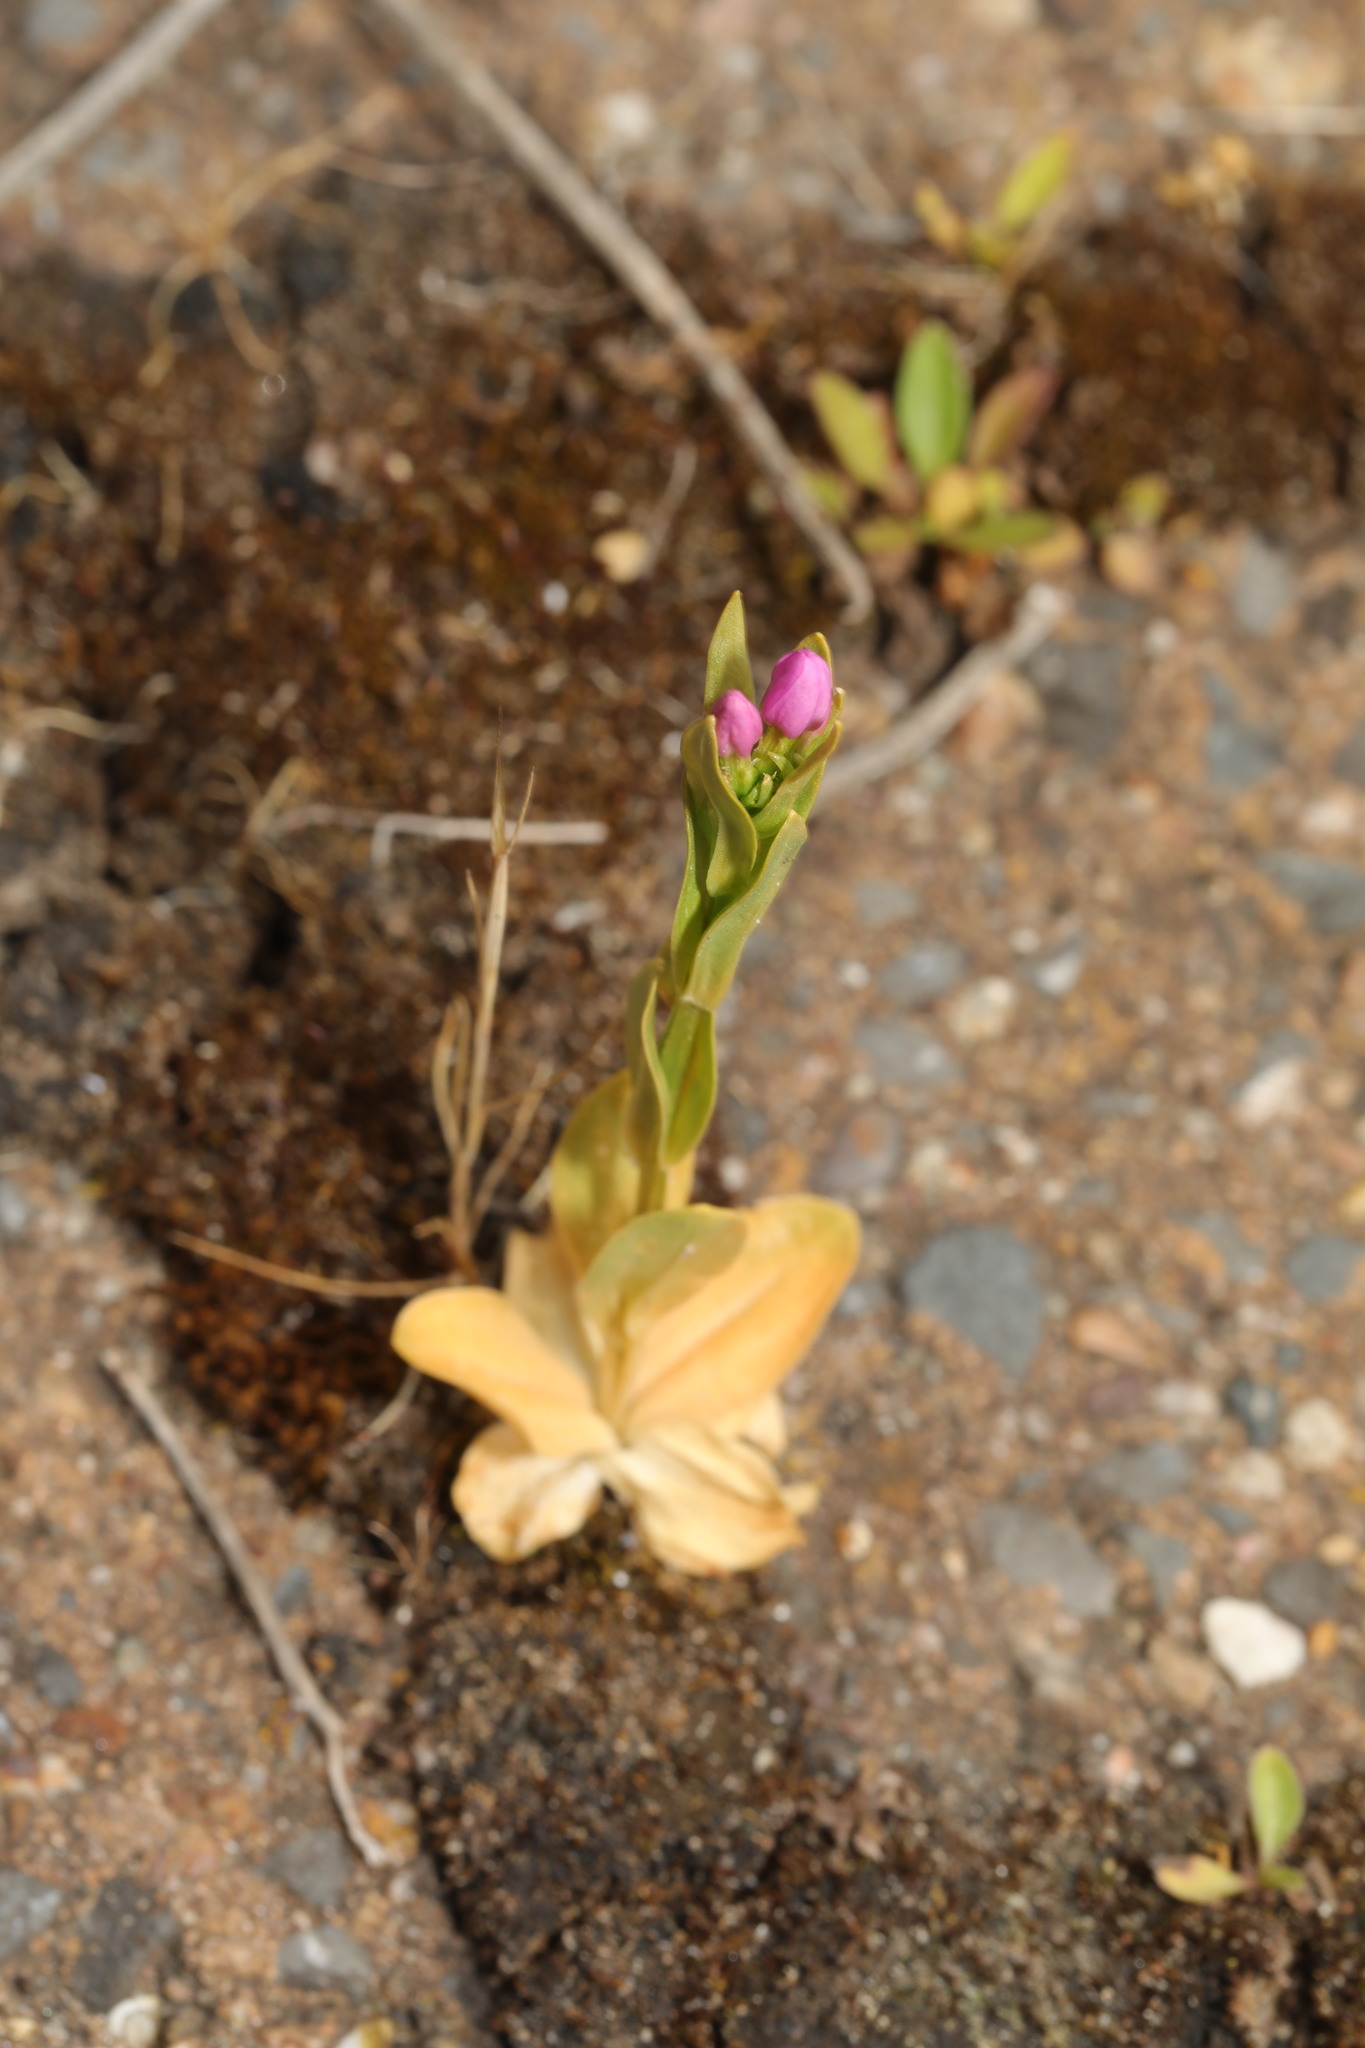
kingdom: Plantae
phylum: Tracheophyta
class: Magnoliopsida
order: Gentianales
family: Gentianaceae
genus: Centaurium
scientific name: Centaurium erythraea
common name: Common centaury
